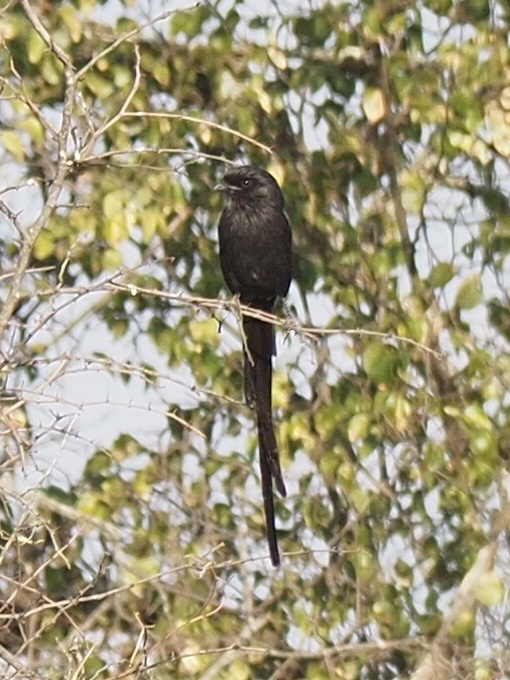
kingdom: Animalia
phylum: Chordata
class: Aves
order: Passeriformes
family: Laniidae
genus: Urolestes
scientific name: Urolestes melanoleucus
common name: Magpie shrike
